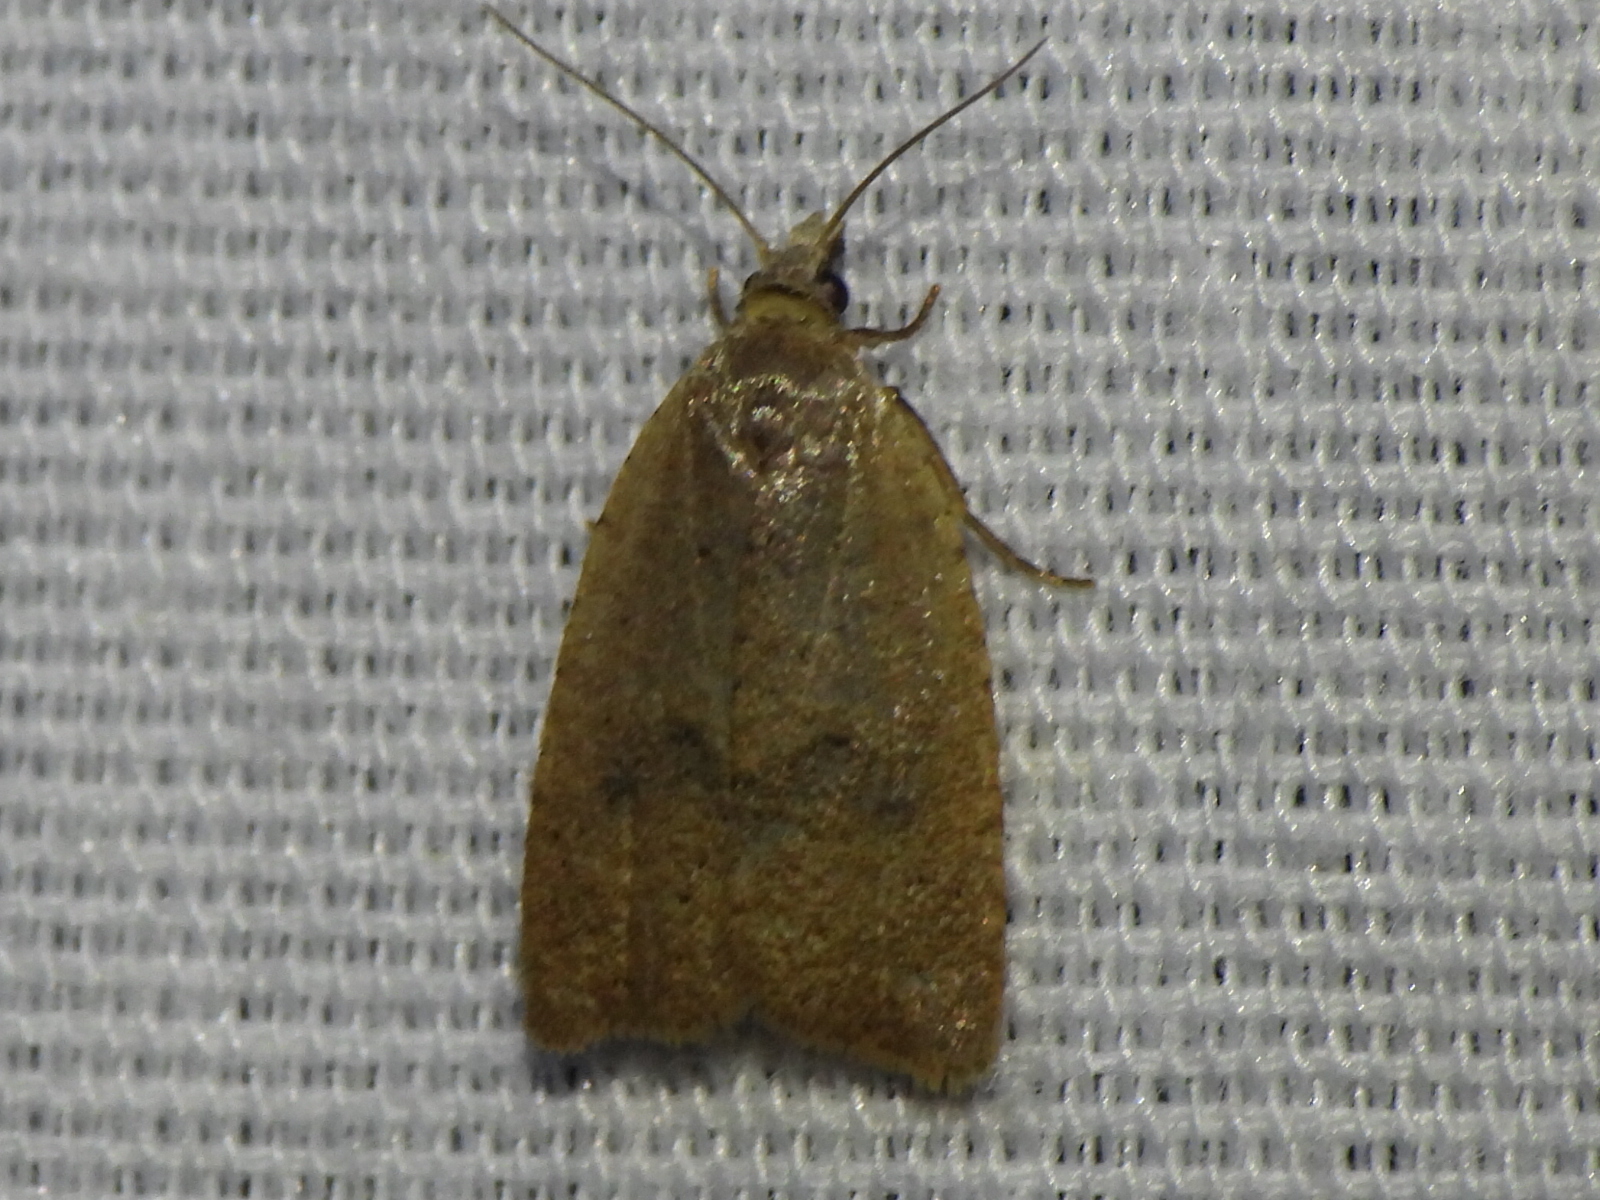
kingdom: Animalia
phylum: Arthropoda
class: Insecta
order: Lepidoptera
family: Tortricidae
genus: Sparganothoides
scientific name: Sparganothoides lentiginosana
